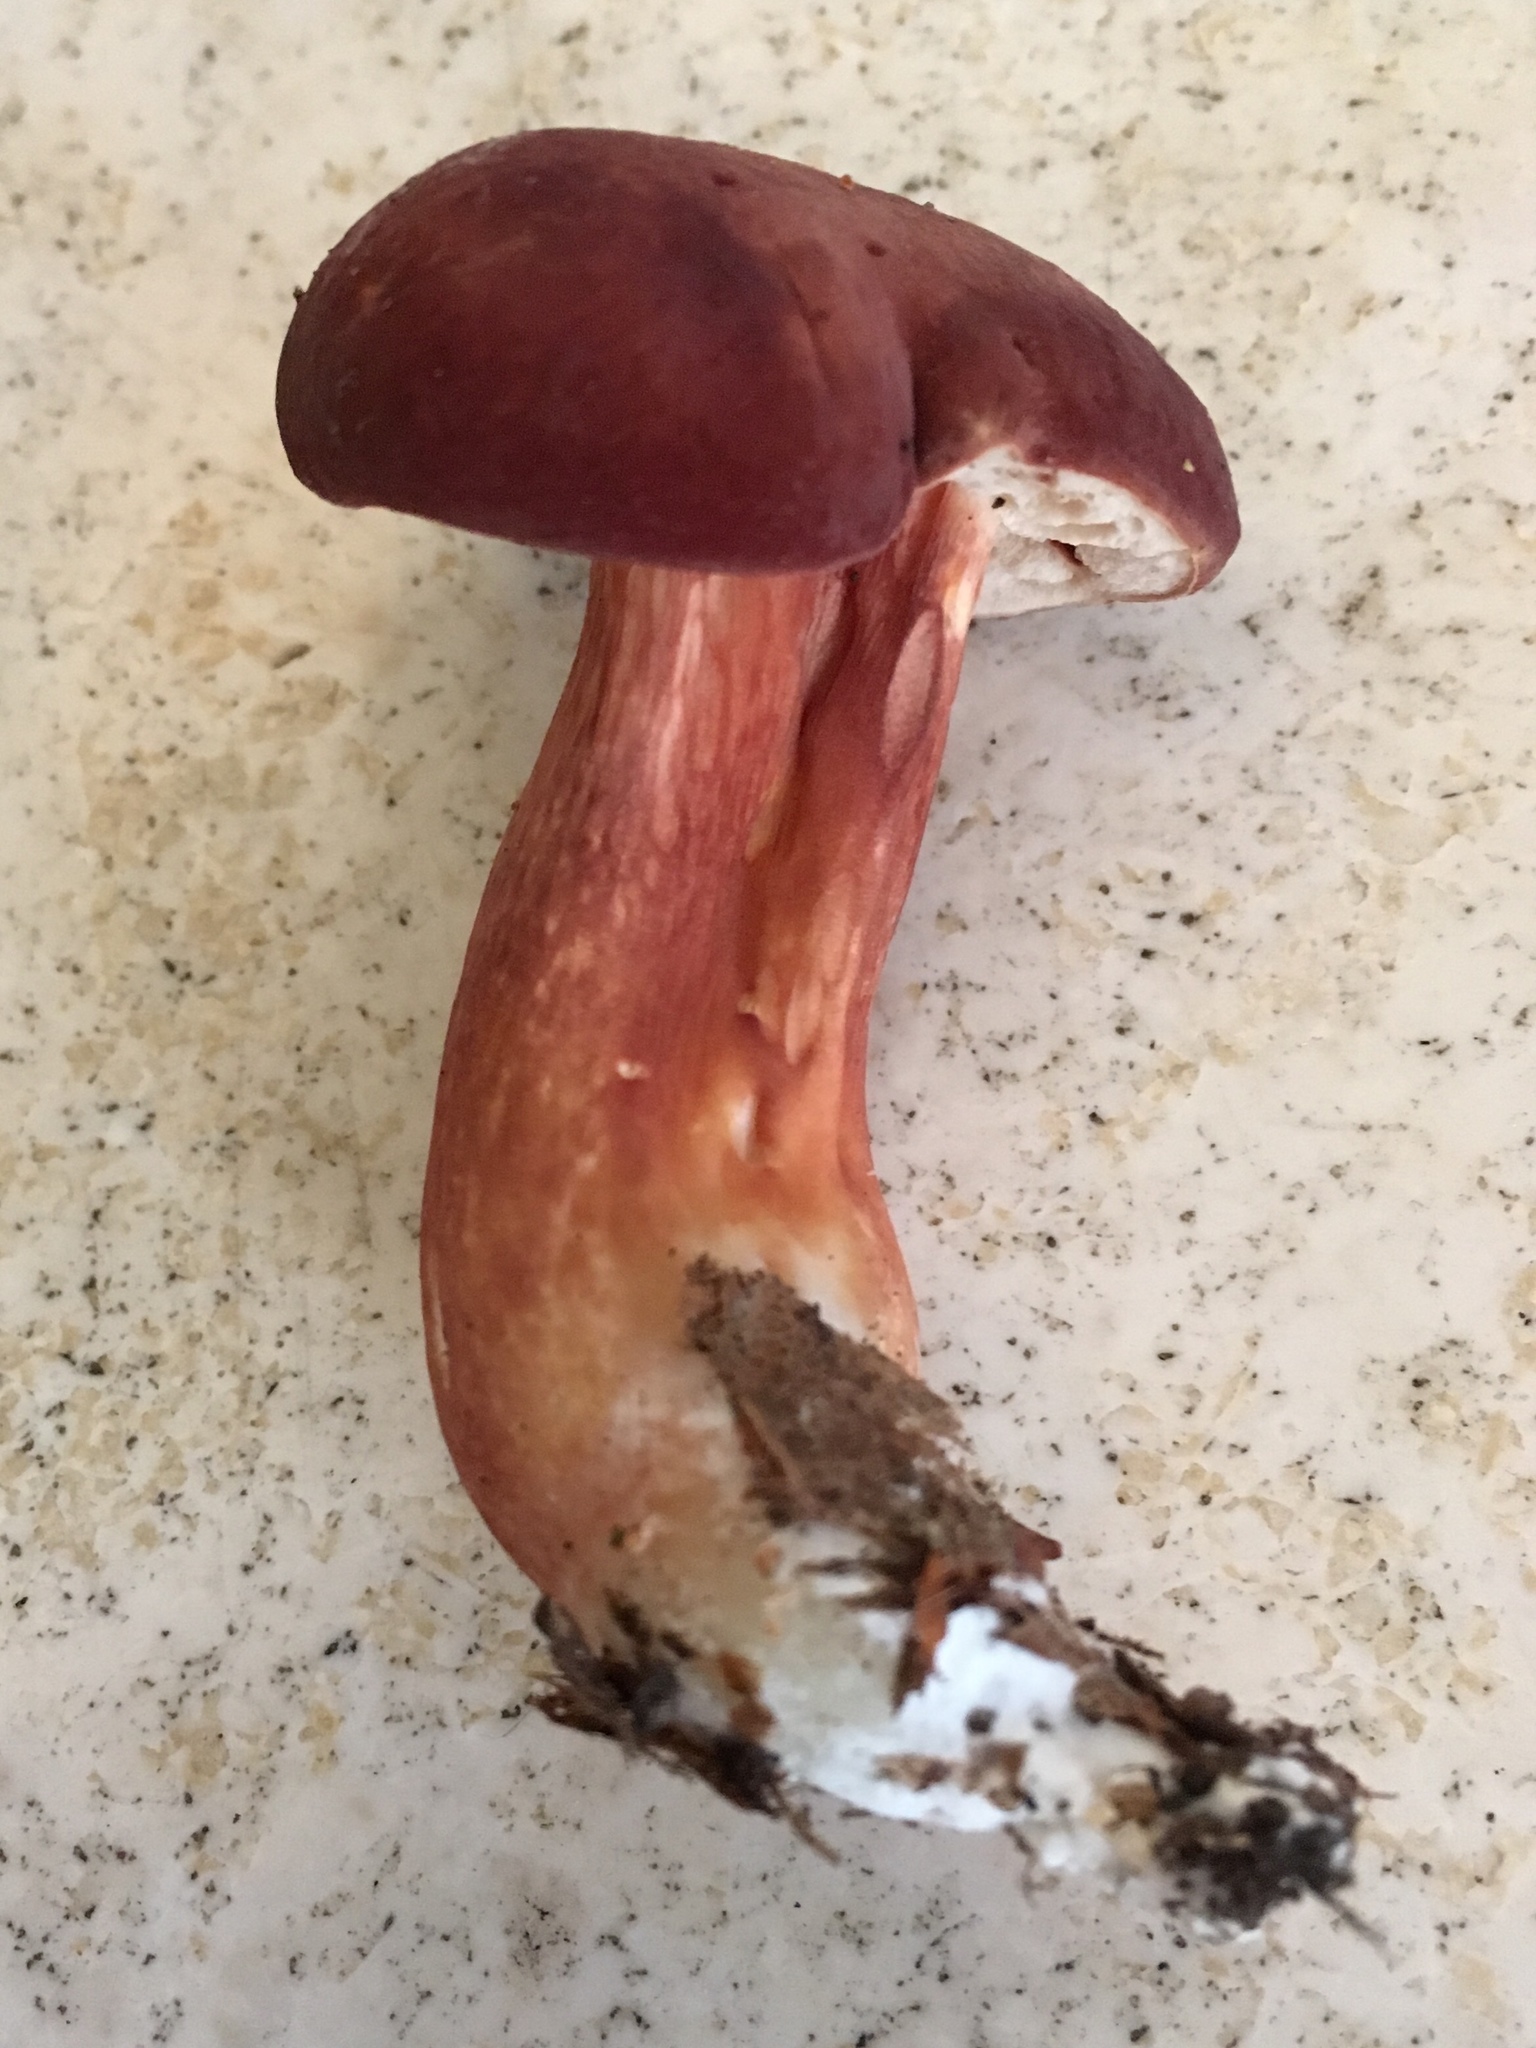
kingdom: Fungi
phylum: Basidiomycota
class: Agaricomycetes
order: Boletales
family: Boletaceae
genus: Xanthoconium
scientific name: Xanthoconium purpureum
